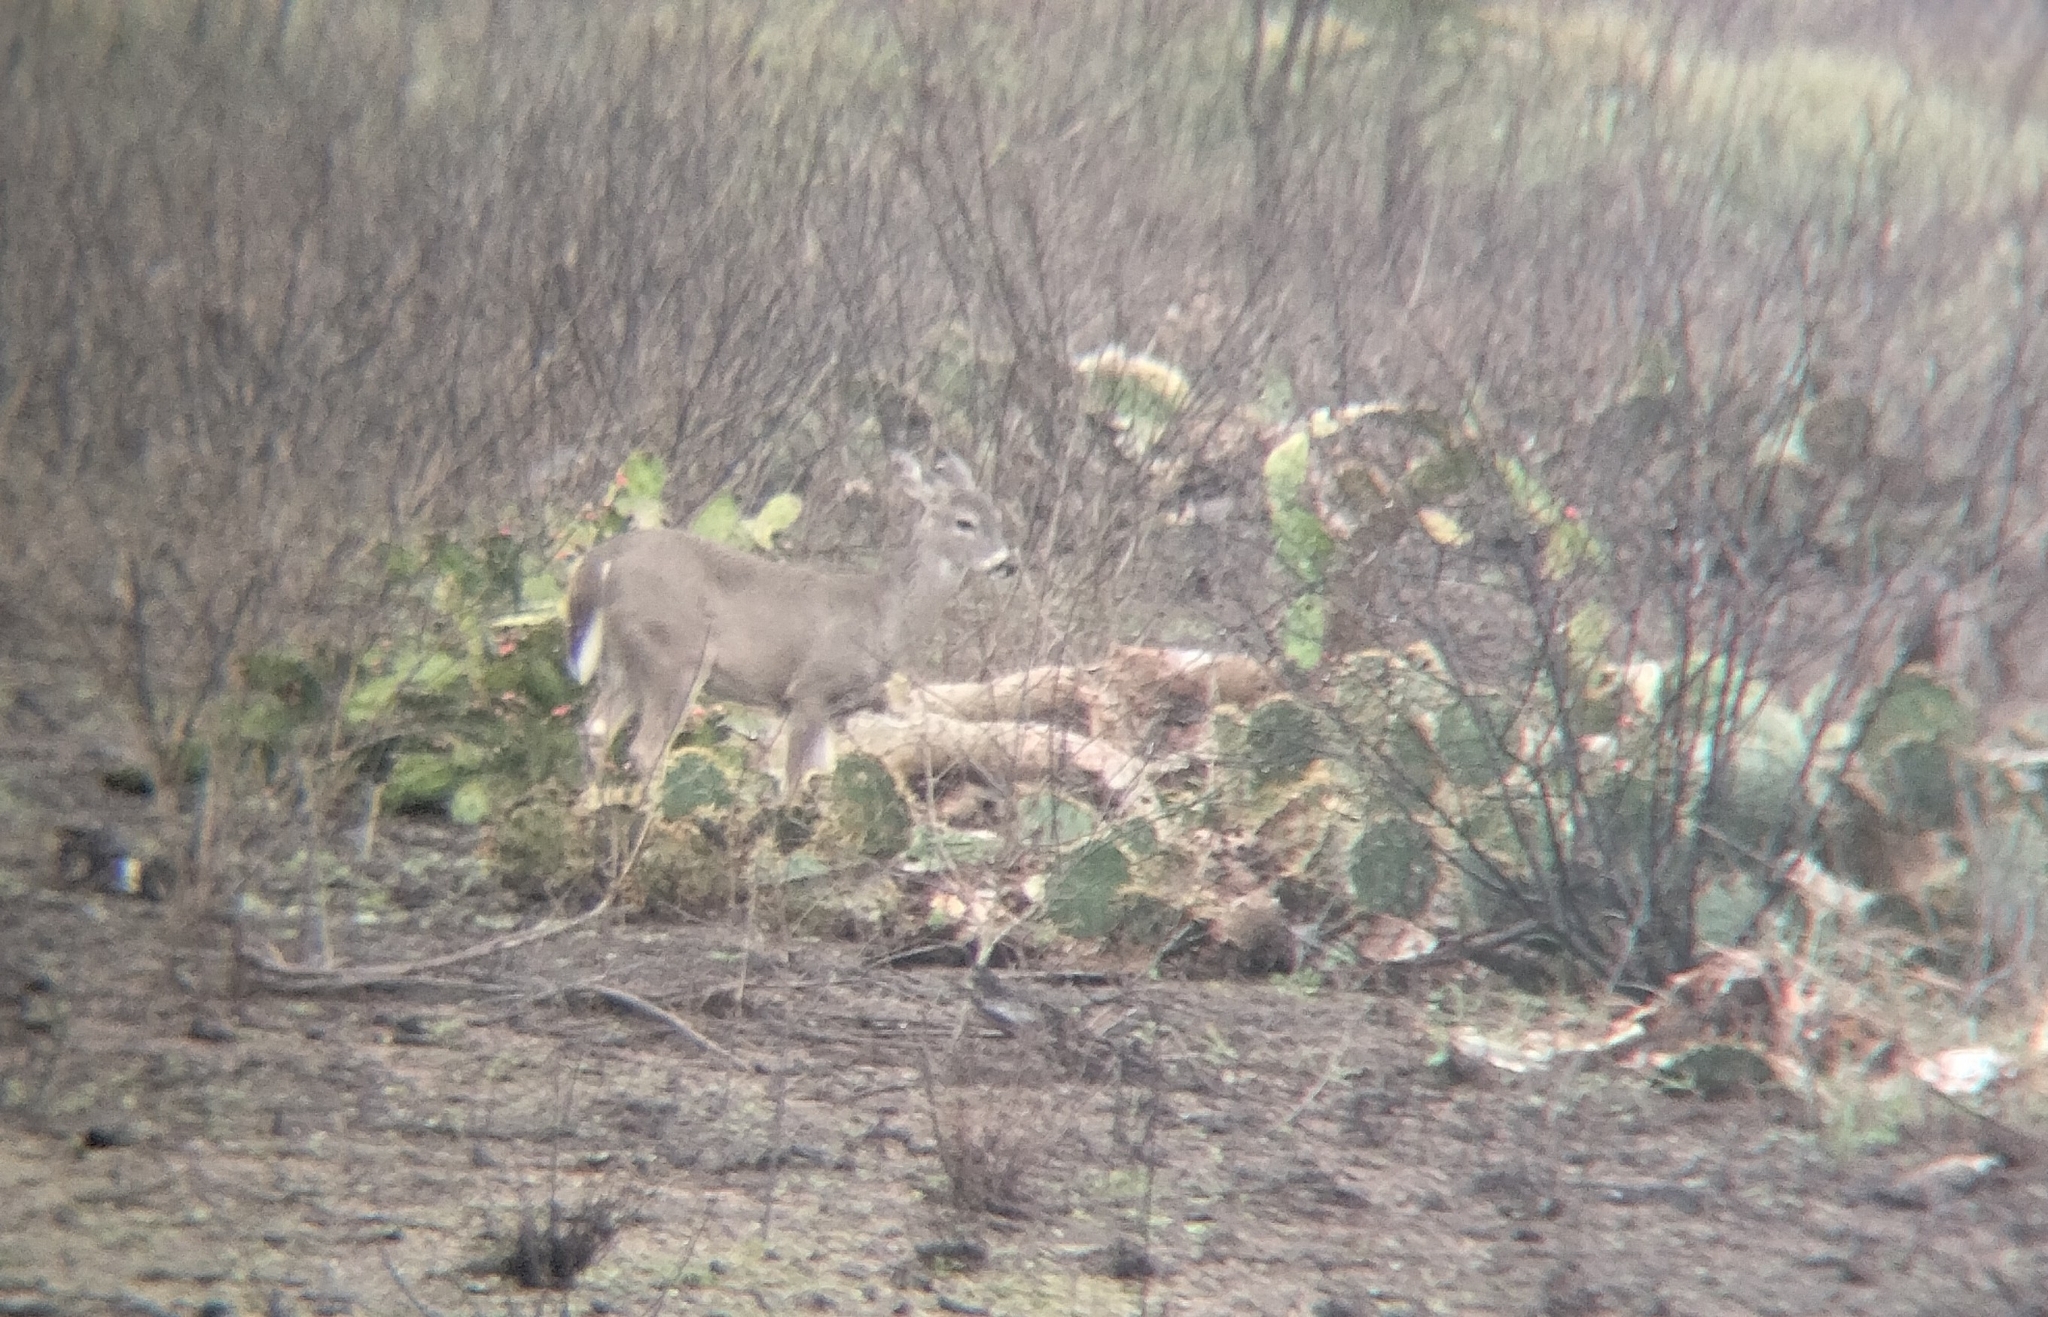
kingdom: Animalia
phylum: Chordata
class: Mammalia
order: Artiodactyla
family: Cervidae
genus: Odocoileus
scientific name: Odocoileus virginianus
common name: White-tailed deer
